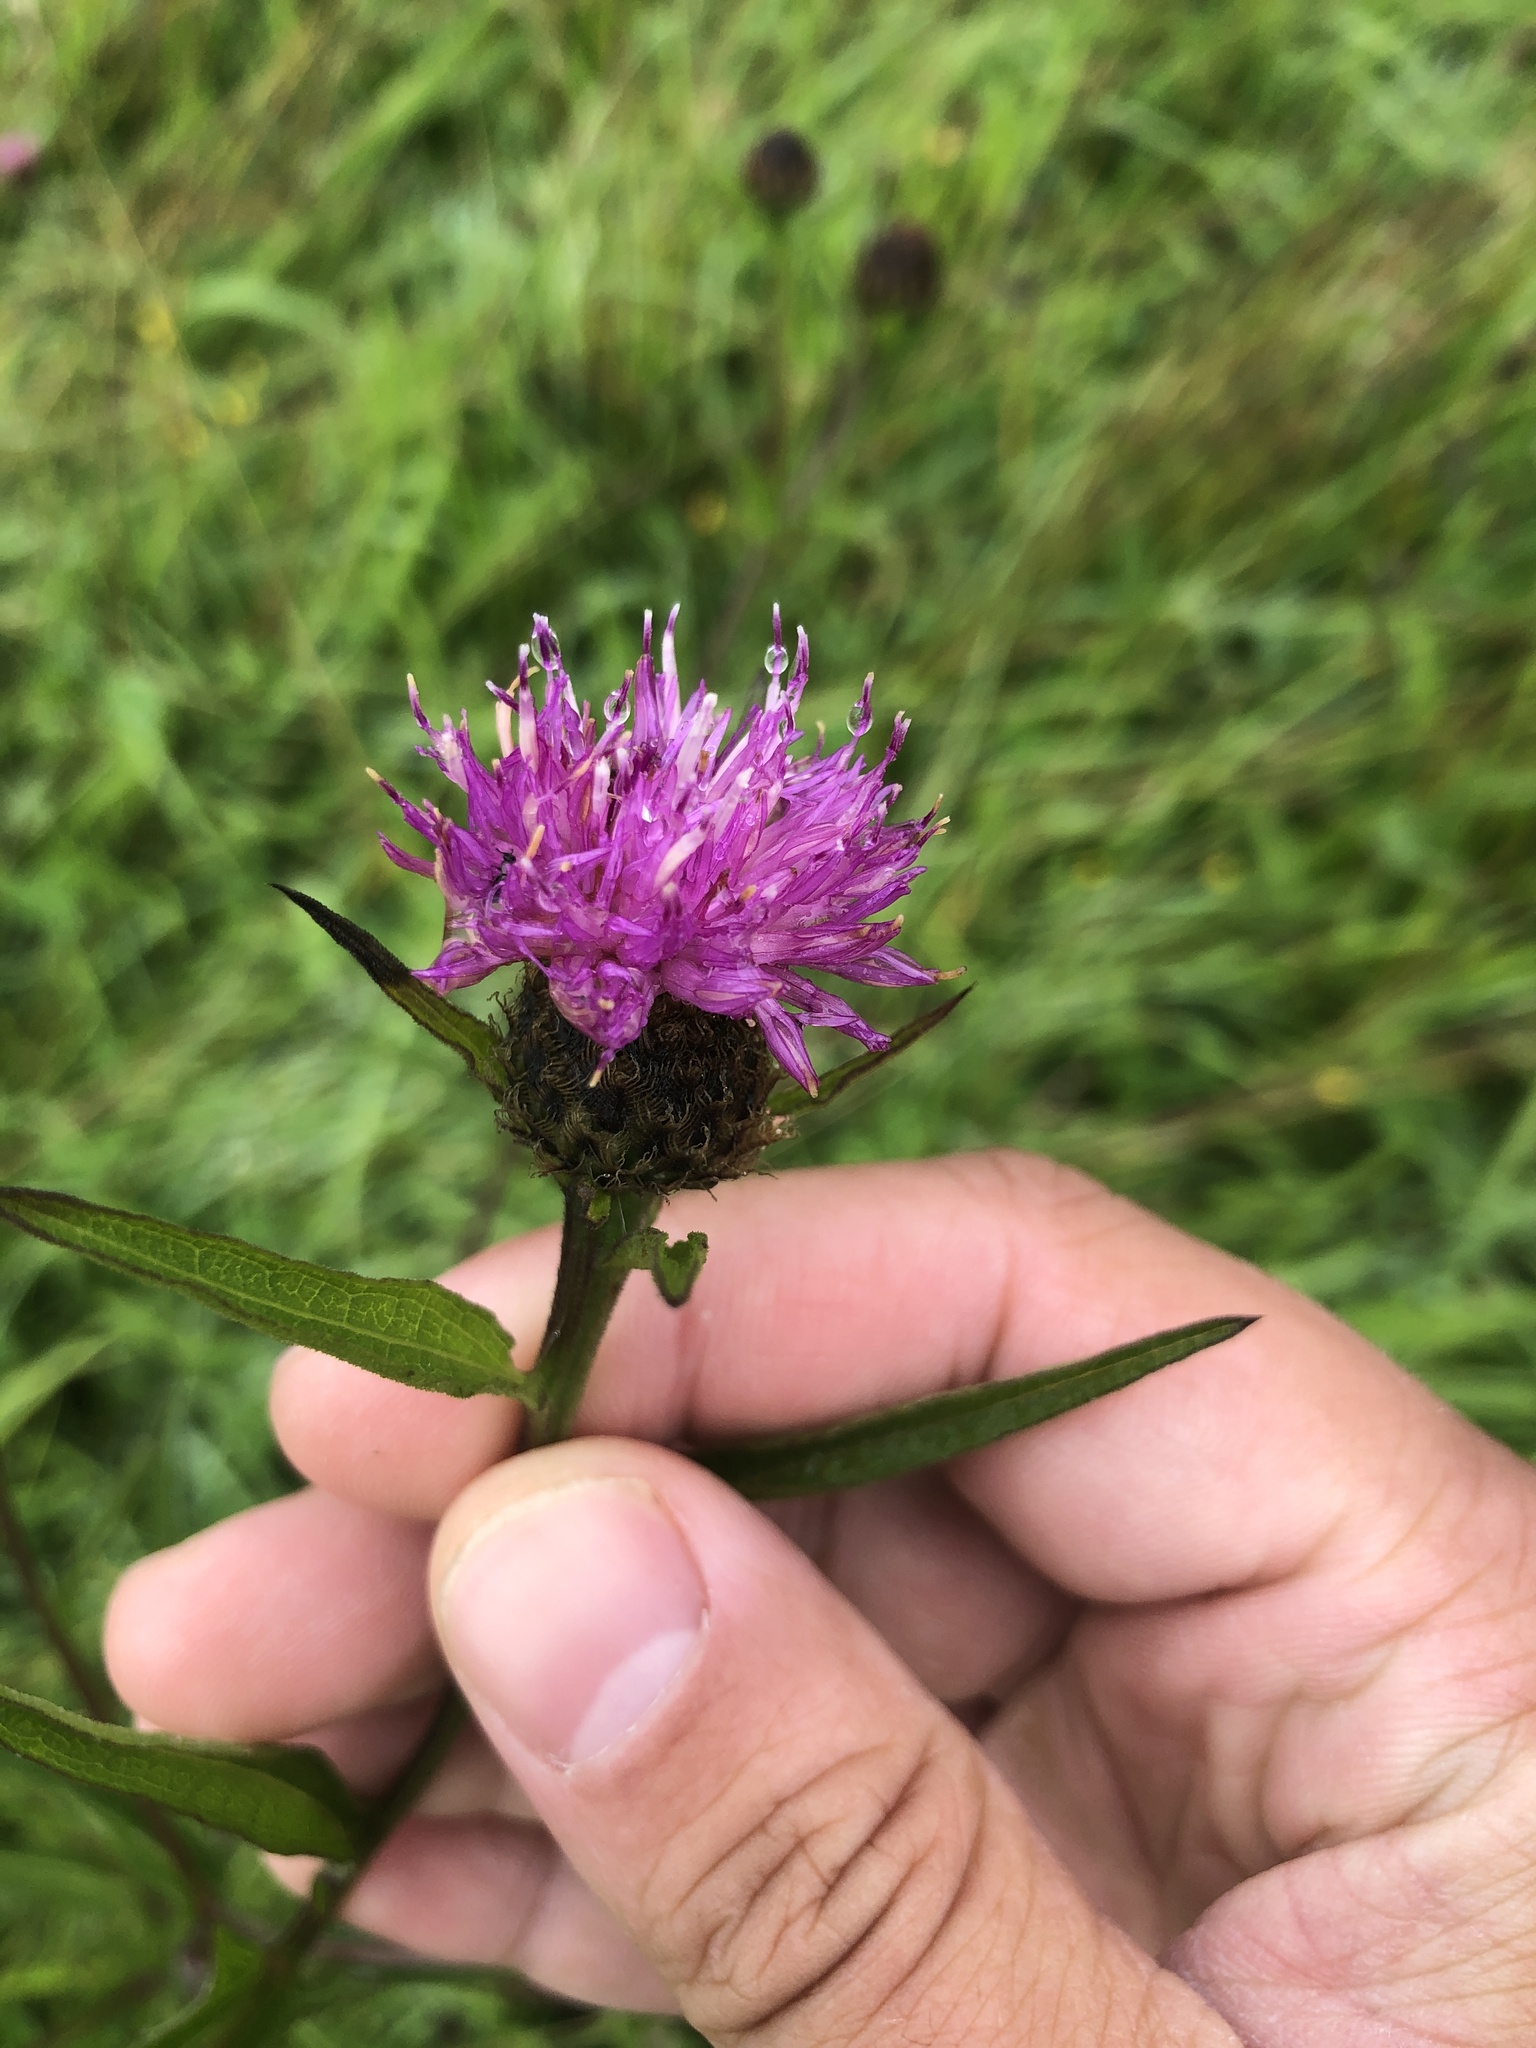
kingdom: Plantae
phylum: Tracheophyta
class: Magnoliopsida
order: Asterales
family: Asteraceae
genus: Centaurea
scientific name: Centaurea nigra
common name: Lesser knapweed
